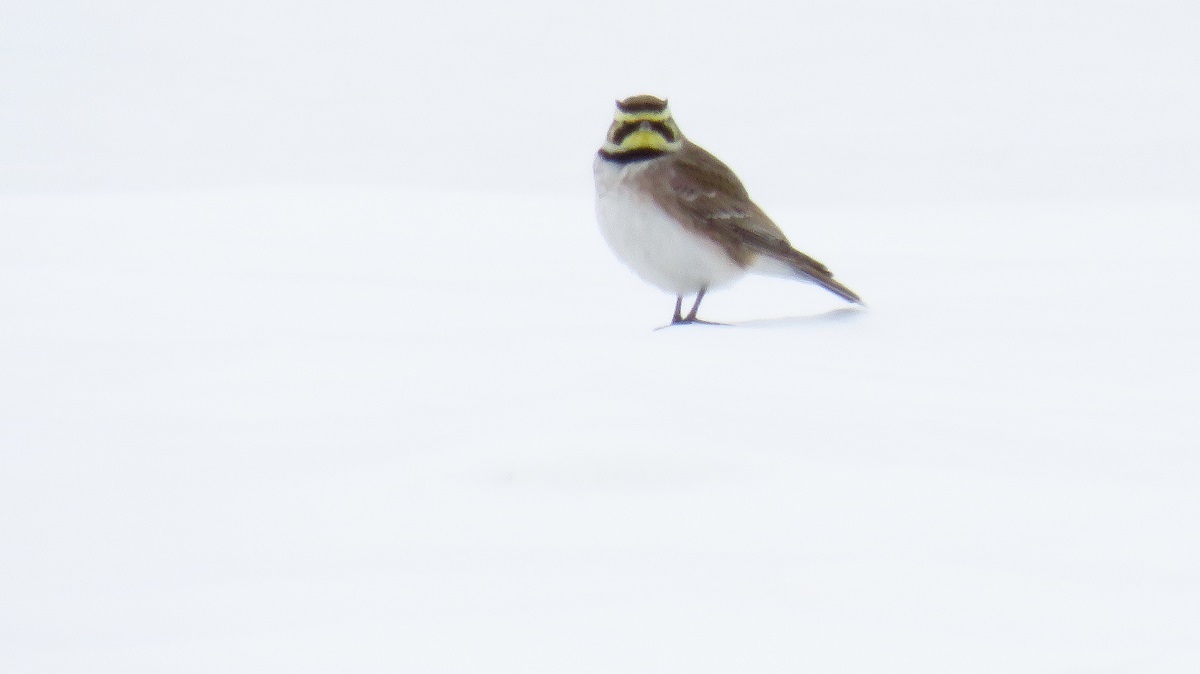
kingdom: Animalia
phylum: Chordata
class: Aves
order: Passeriformes
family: Alaudidae
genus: Eremophila
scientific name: Eremophila alpestris
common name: Horned lark
